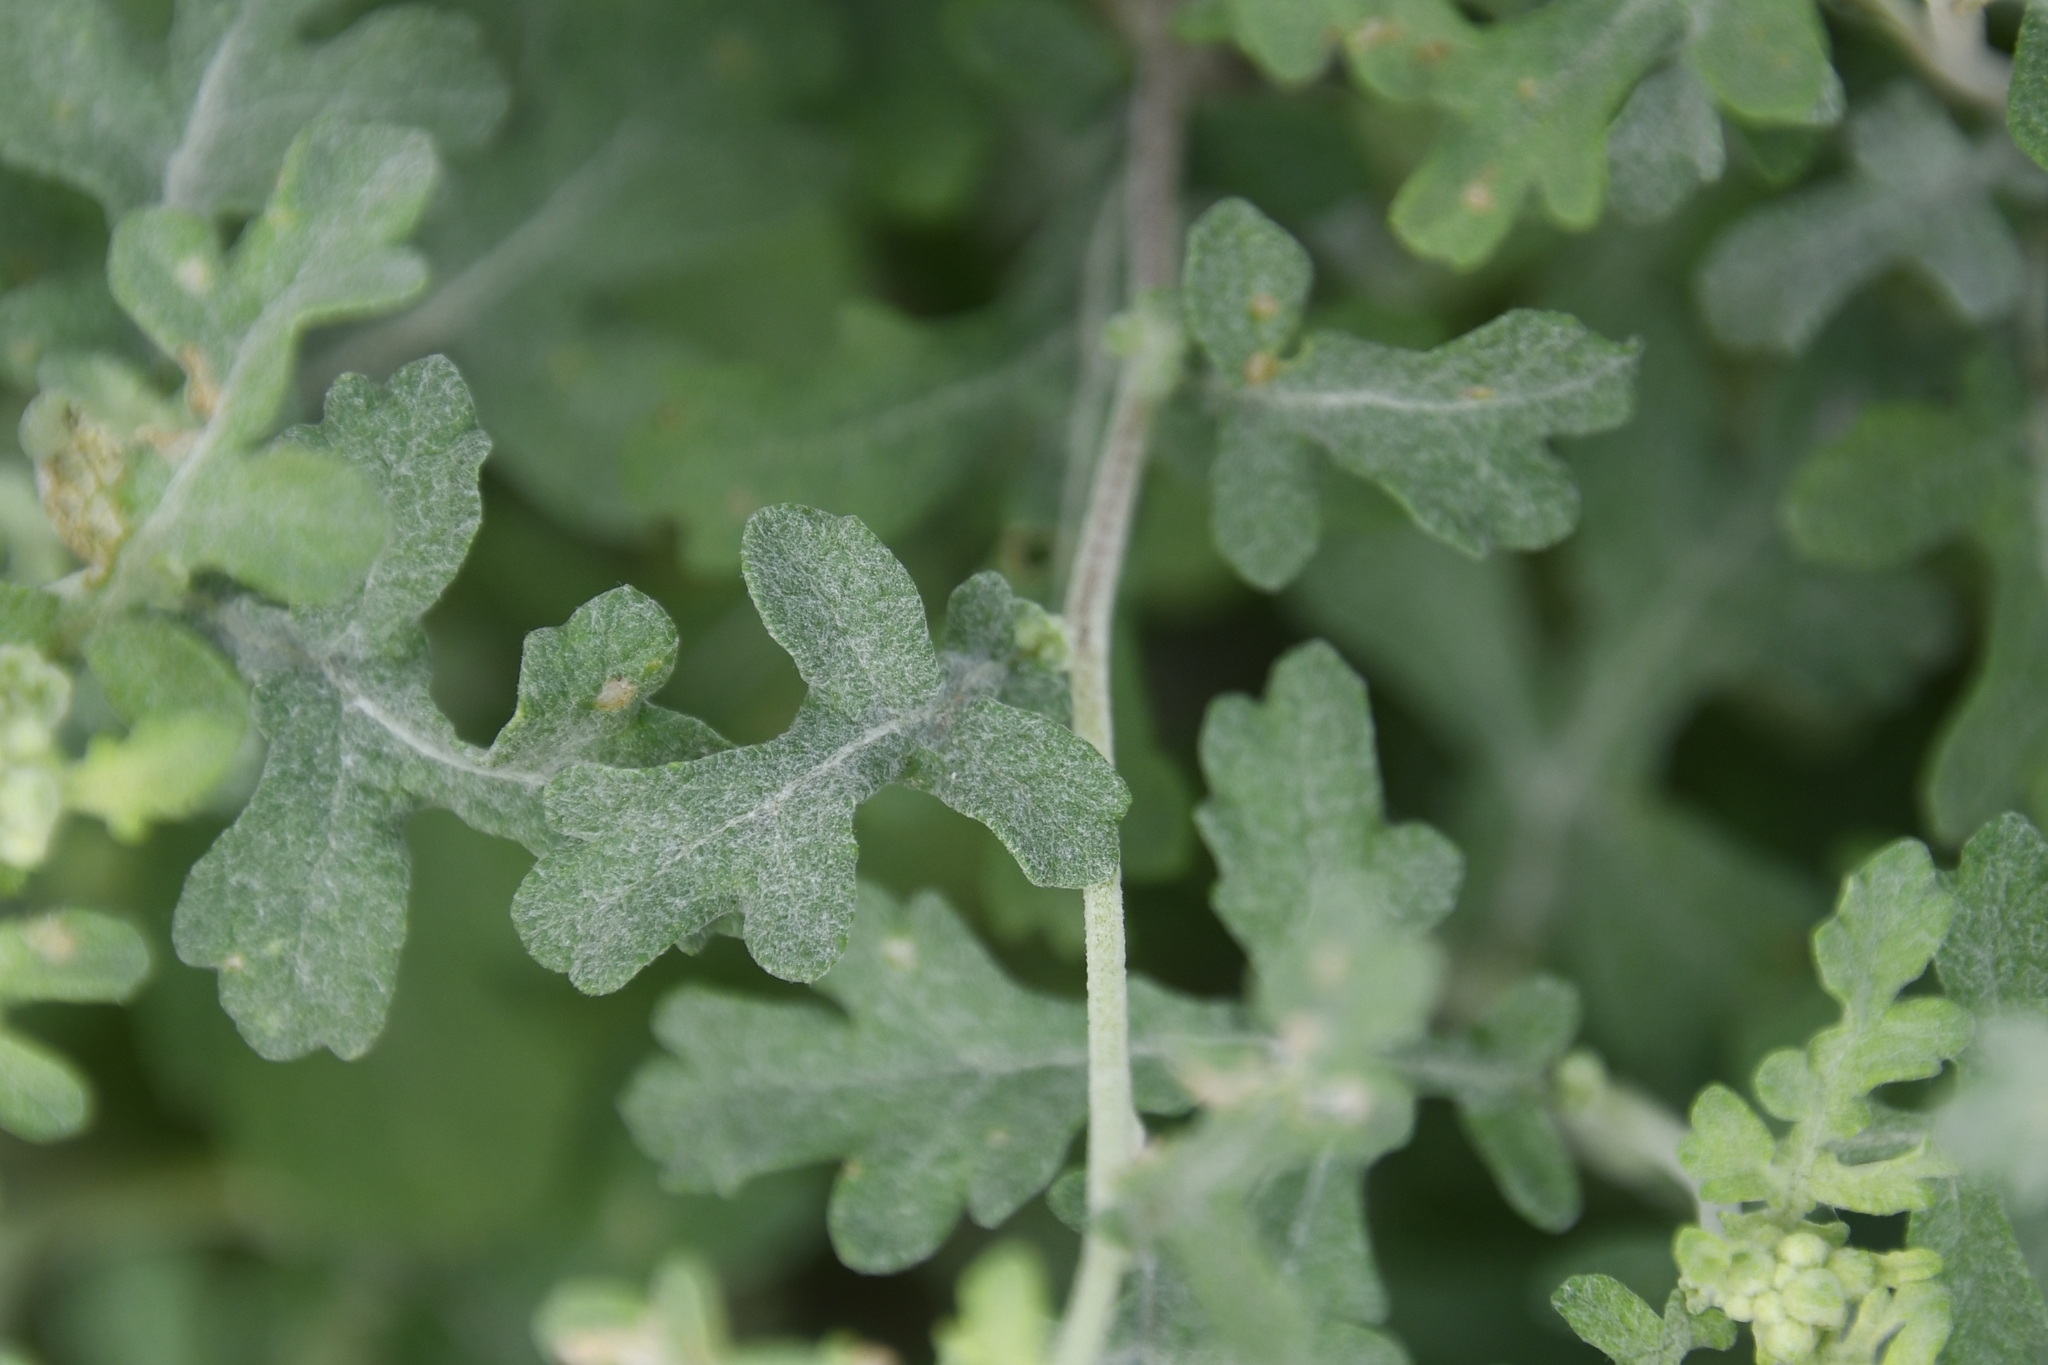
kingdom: Plantae
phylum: Tracheophyta
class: Magnoliopsida
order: Asterales
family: Asteraceae
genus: Parthenium
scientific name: Parthenium incanum
